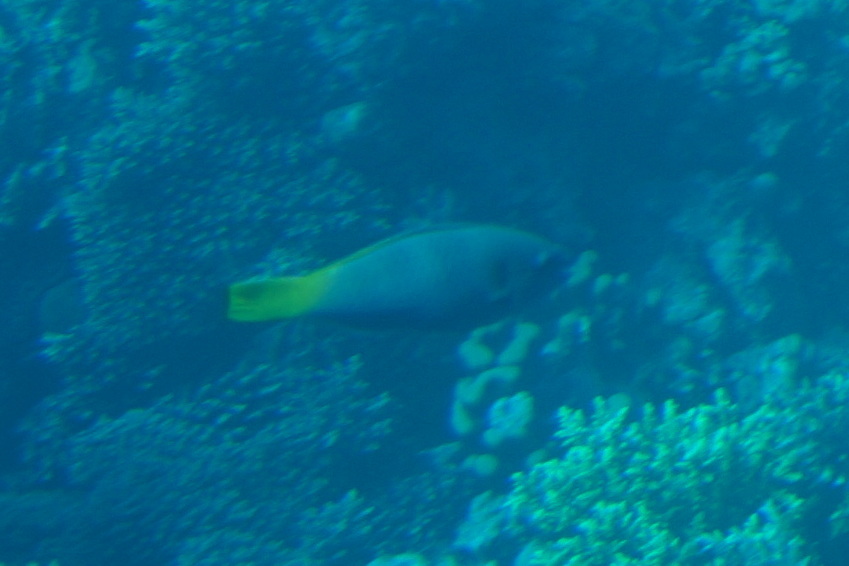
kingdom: Animalia
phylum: Chordata
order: Perciformes
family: Scaridae
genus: Scarus
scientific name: Scarus ferrugineus
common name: Rusty parrotfish
